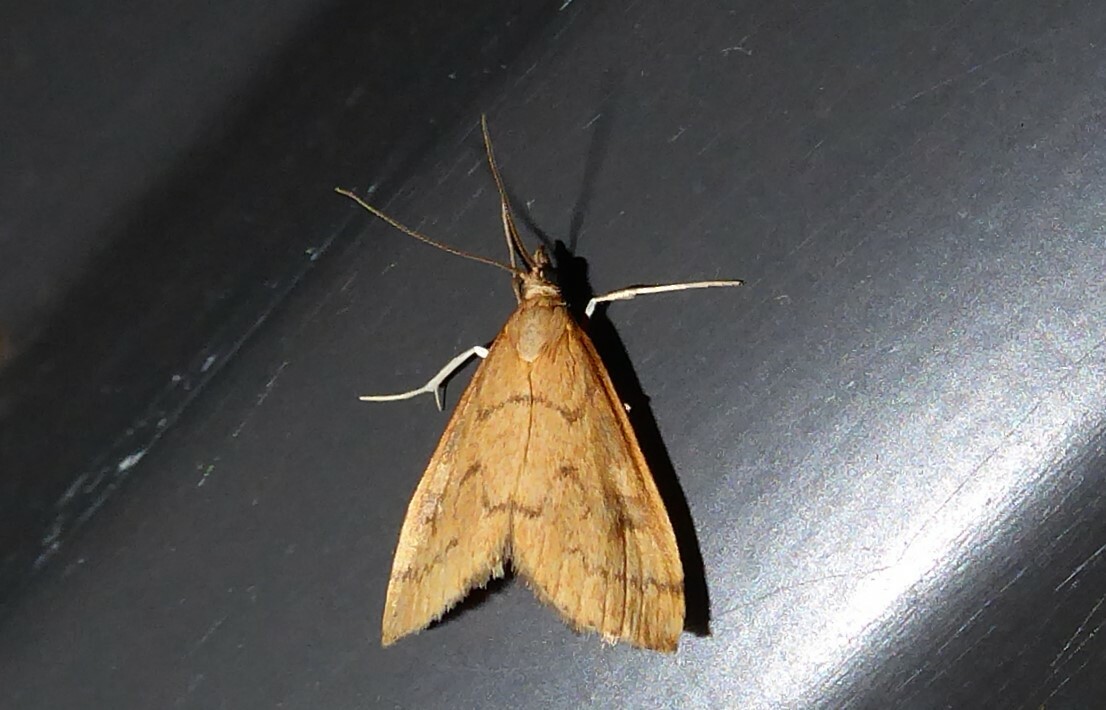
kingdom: Animalia
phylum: Arthropoda
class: Insecta
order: Lepidoptera
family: Crambidae
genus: Udea
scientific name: Udea Mnesictena flavidalis
